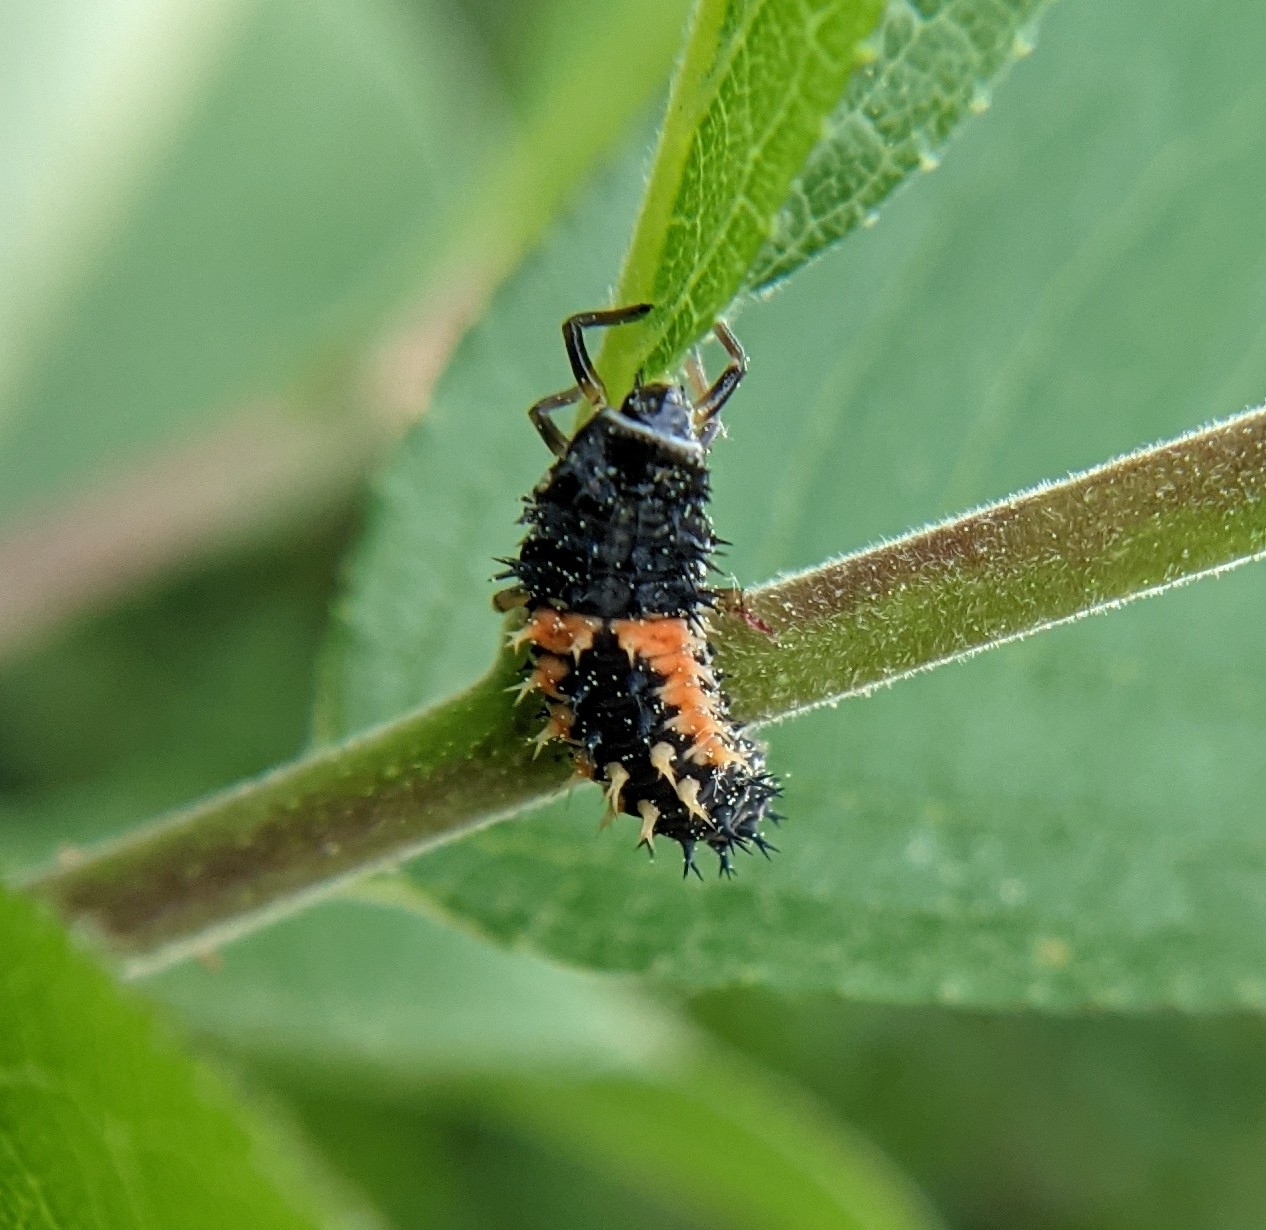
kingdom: Animalia
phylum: Arthropoda
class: Insecta
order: Coleoptera
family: Coccinellidae
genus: Harmonia
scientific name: Harmonia axyridis
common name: Harlequin ladybird
